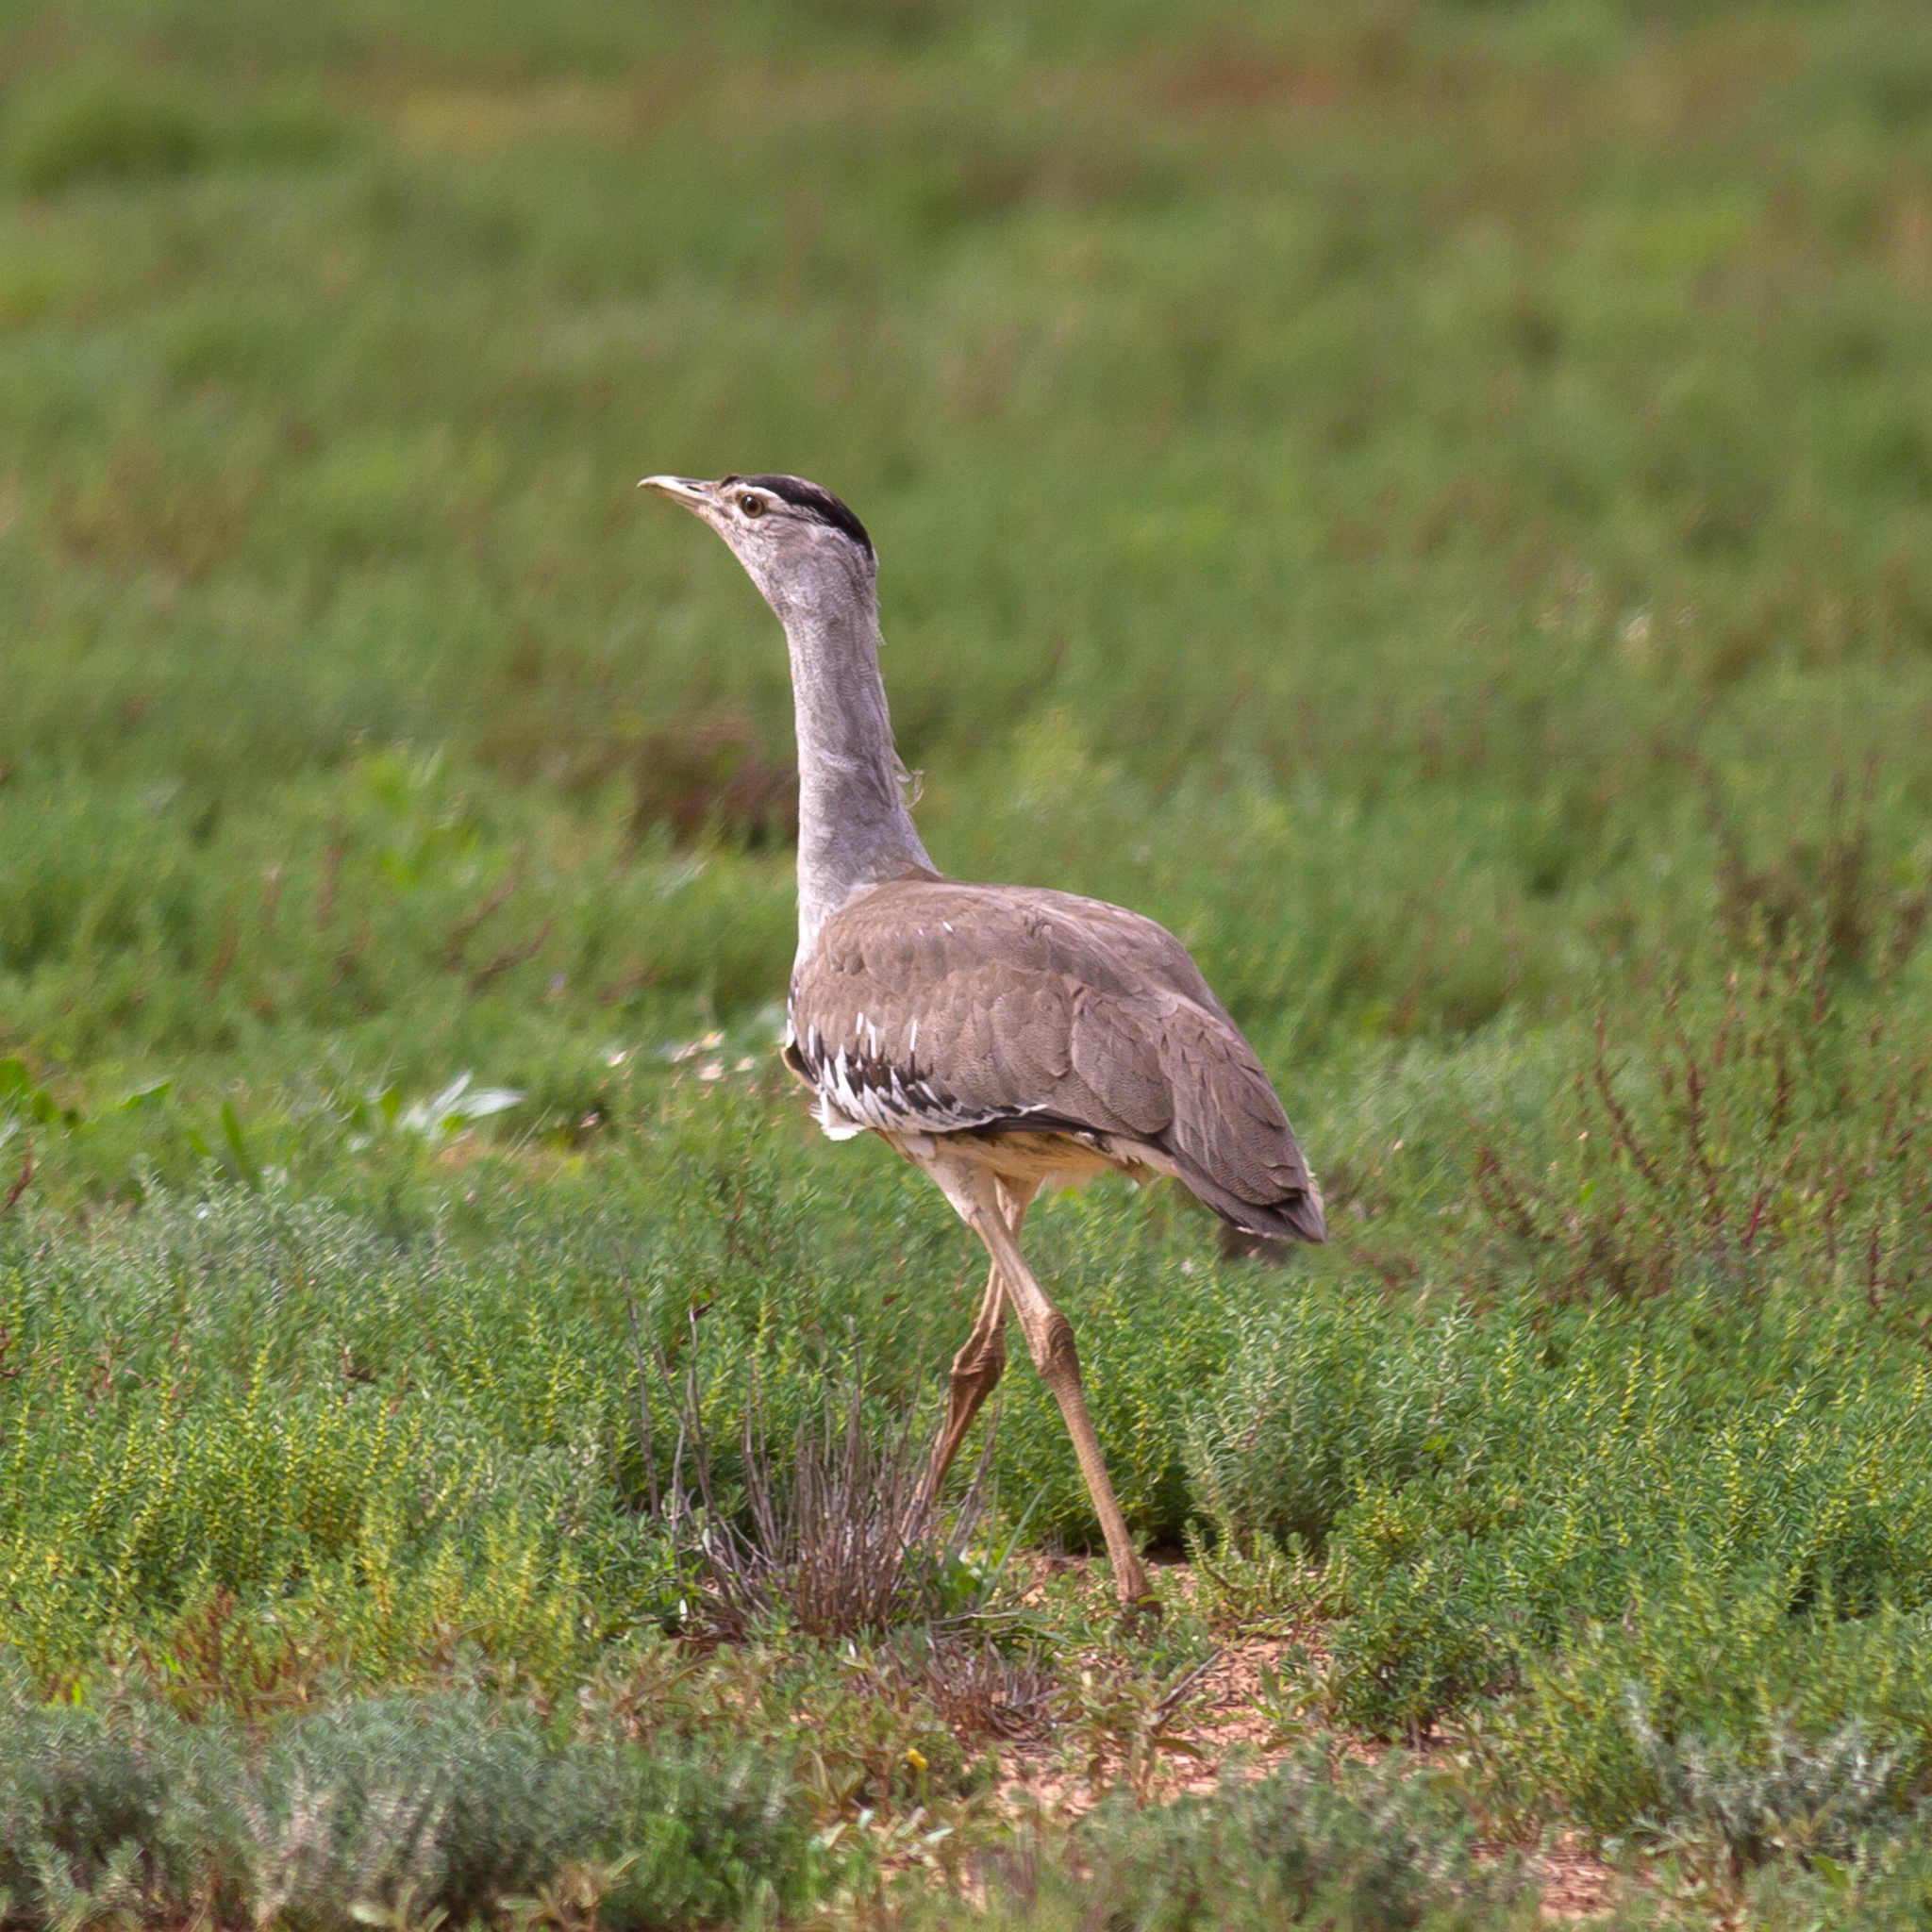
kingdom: Animalia
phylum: Chordata
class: Aves
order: Otidiformes
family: Otididae
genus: Ardeotis
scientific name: Ardeotis australis
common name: Australian bustard
